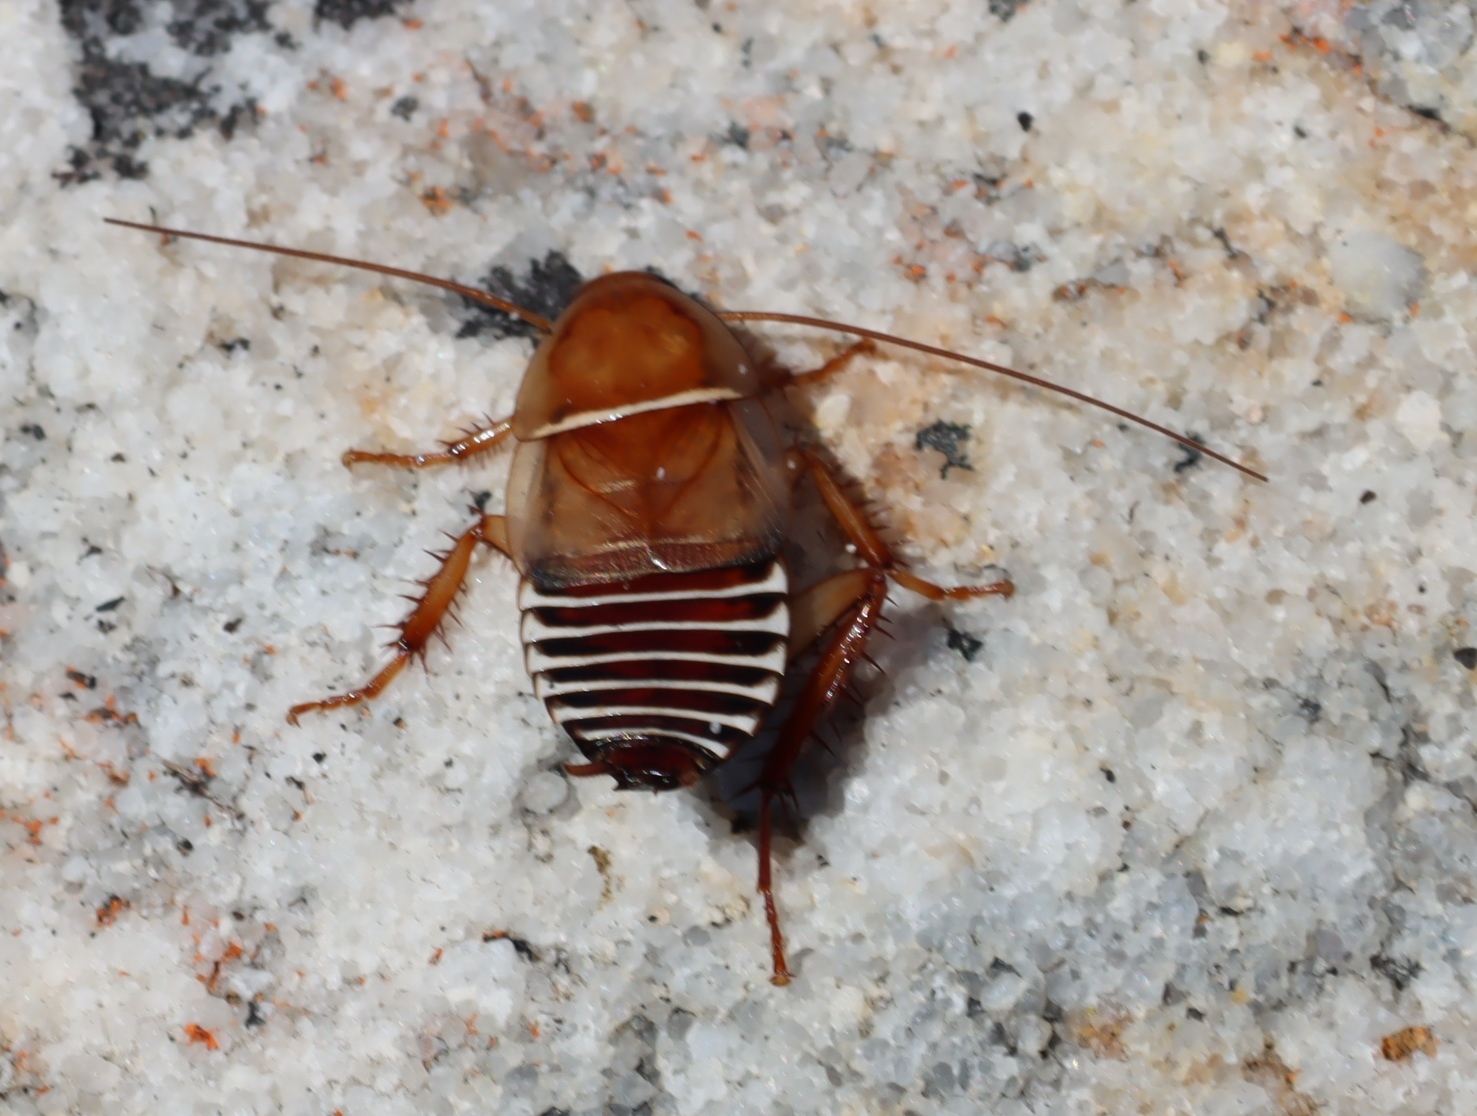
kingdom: Animalia
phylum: Arthropoda
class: Insecta
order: Blattodea
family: Ectobiidae
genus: Temnopteryx
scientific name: Temnopteryx phalerata
